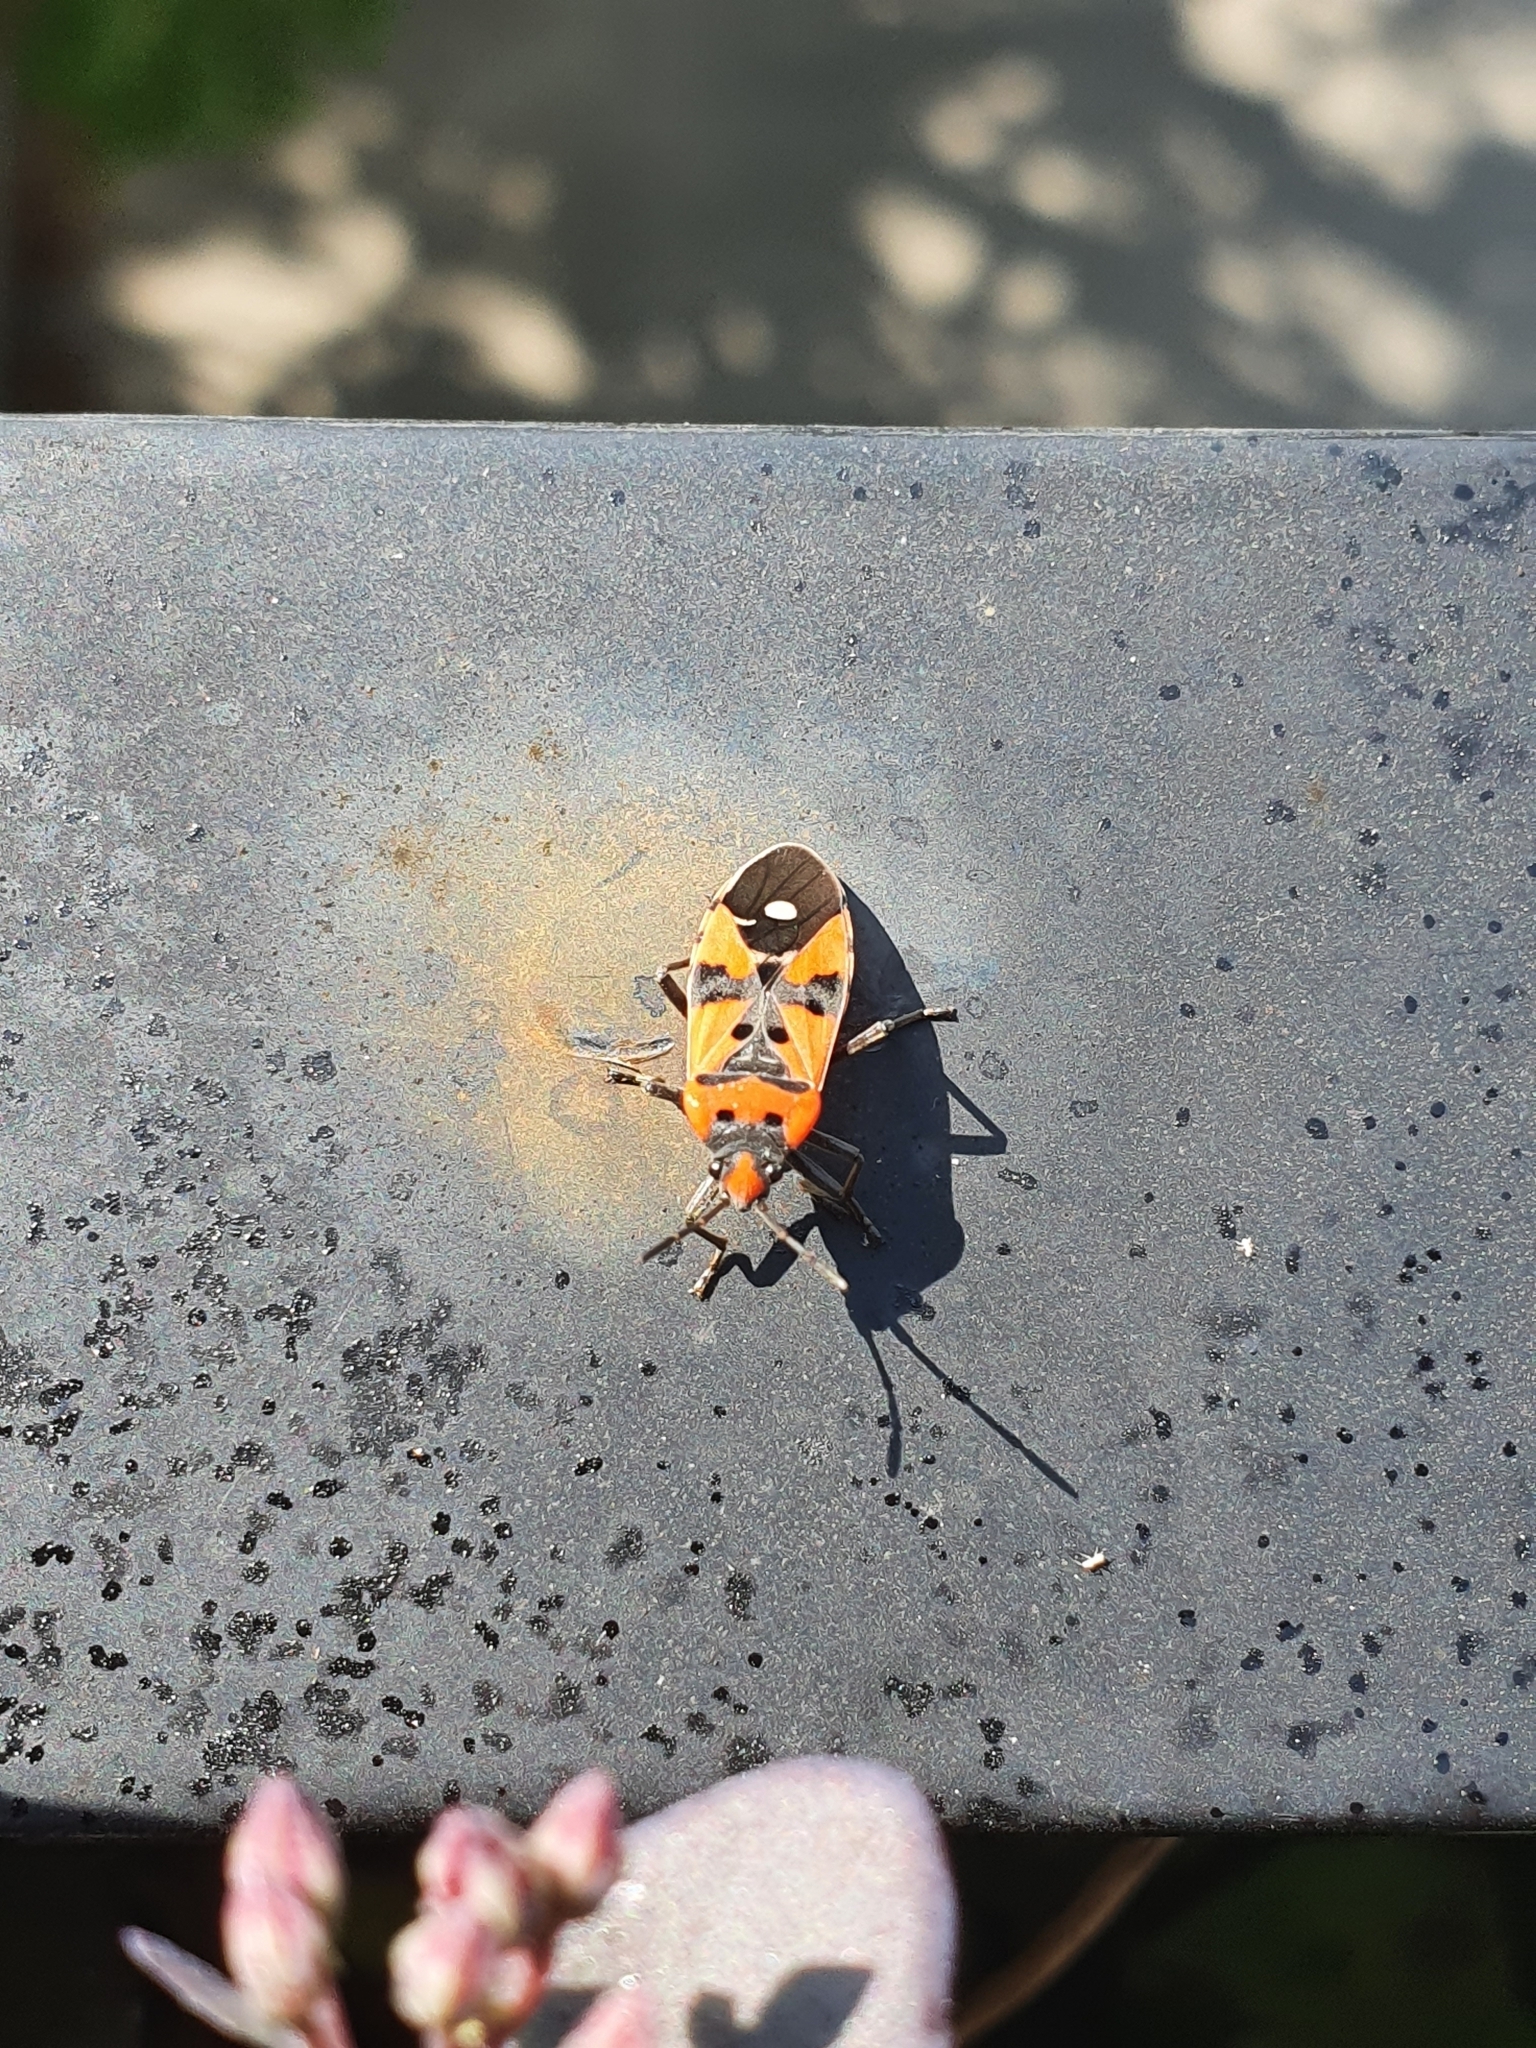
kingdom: Animalia
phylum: Arthropoda
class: Insecta
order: Hemiptera
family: Lygaeidae
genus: Lygaeus
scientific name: Lygaeus equestris
